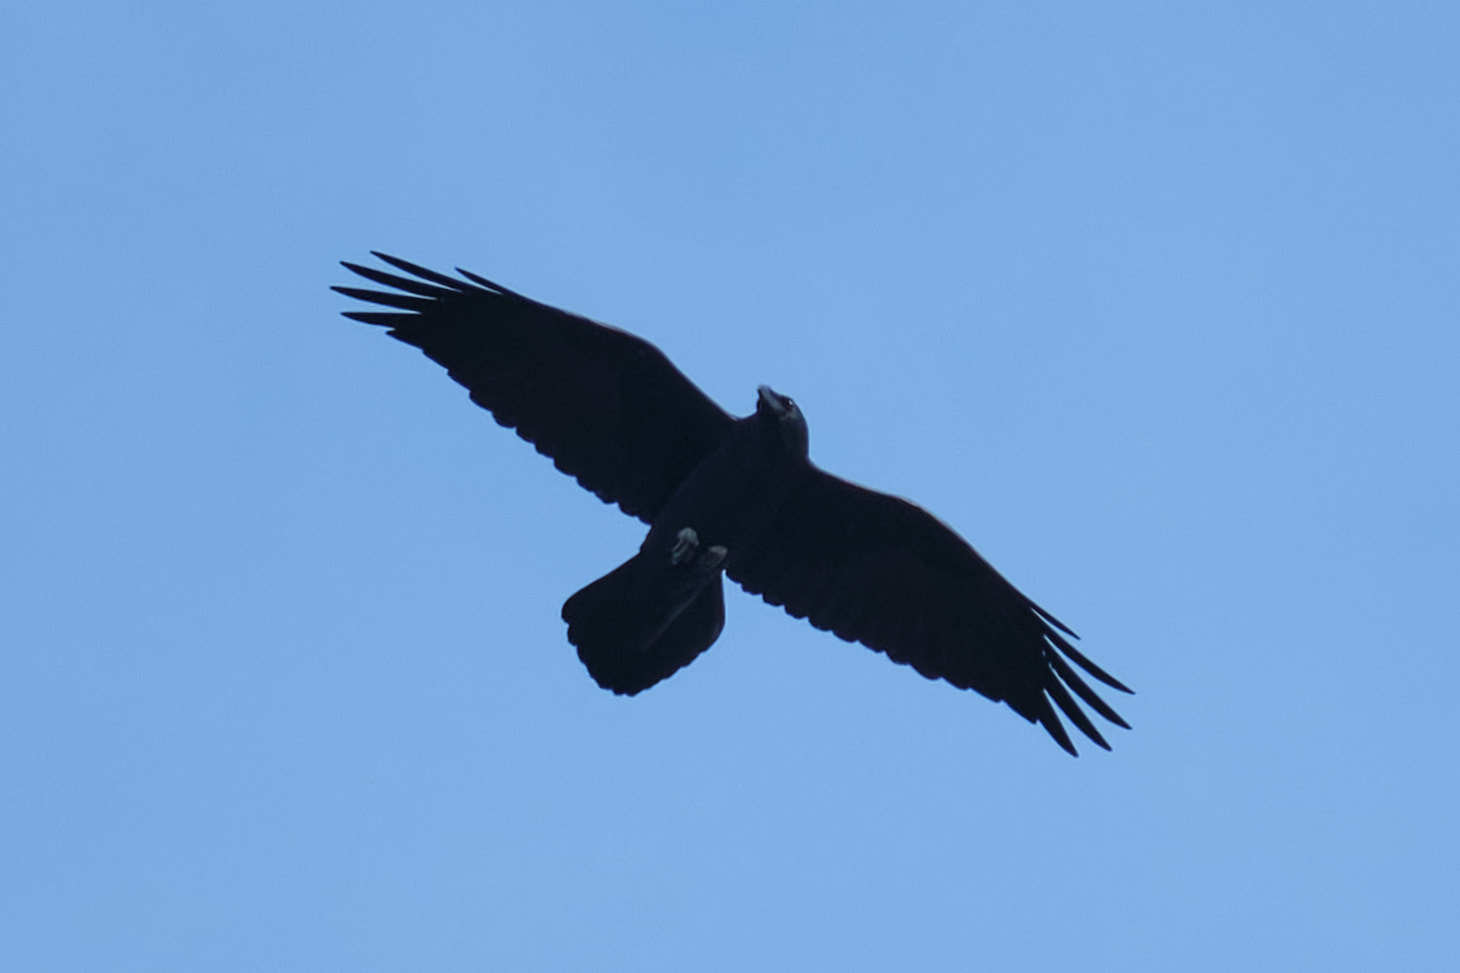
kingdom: Animalia
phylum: Chordata
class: Aves
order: Passeriformes
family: Corvidae
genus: Corvus
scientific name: Corvus corax
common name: Common raven
